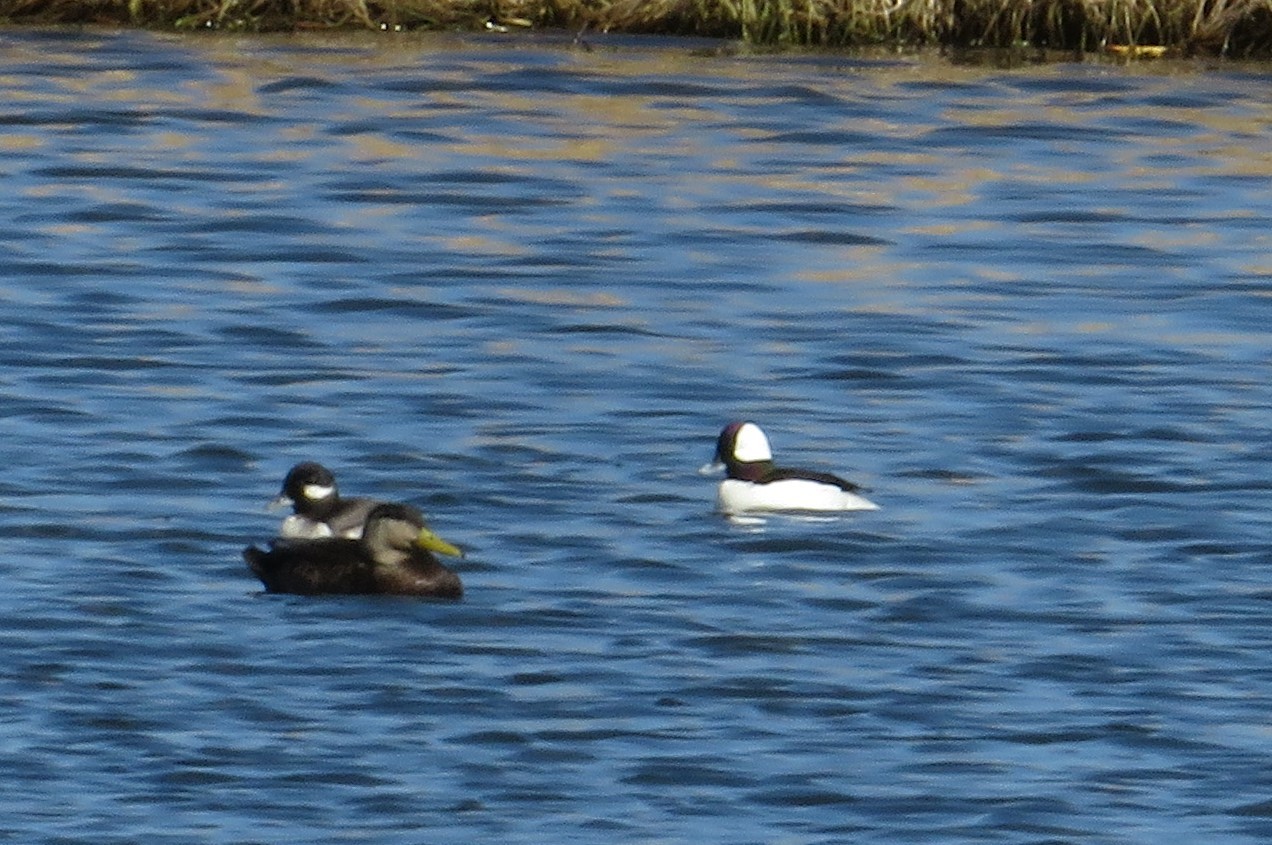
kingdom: Animalia
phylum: Chordata
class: Aves
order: Anseriformes
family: Anatidae
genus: Anas
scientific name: Anas rubripes
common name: American black duck
